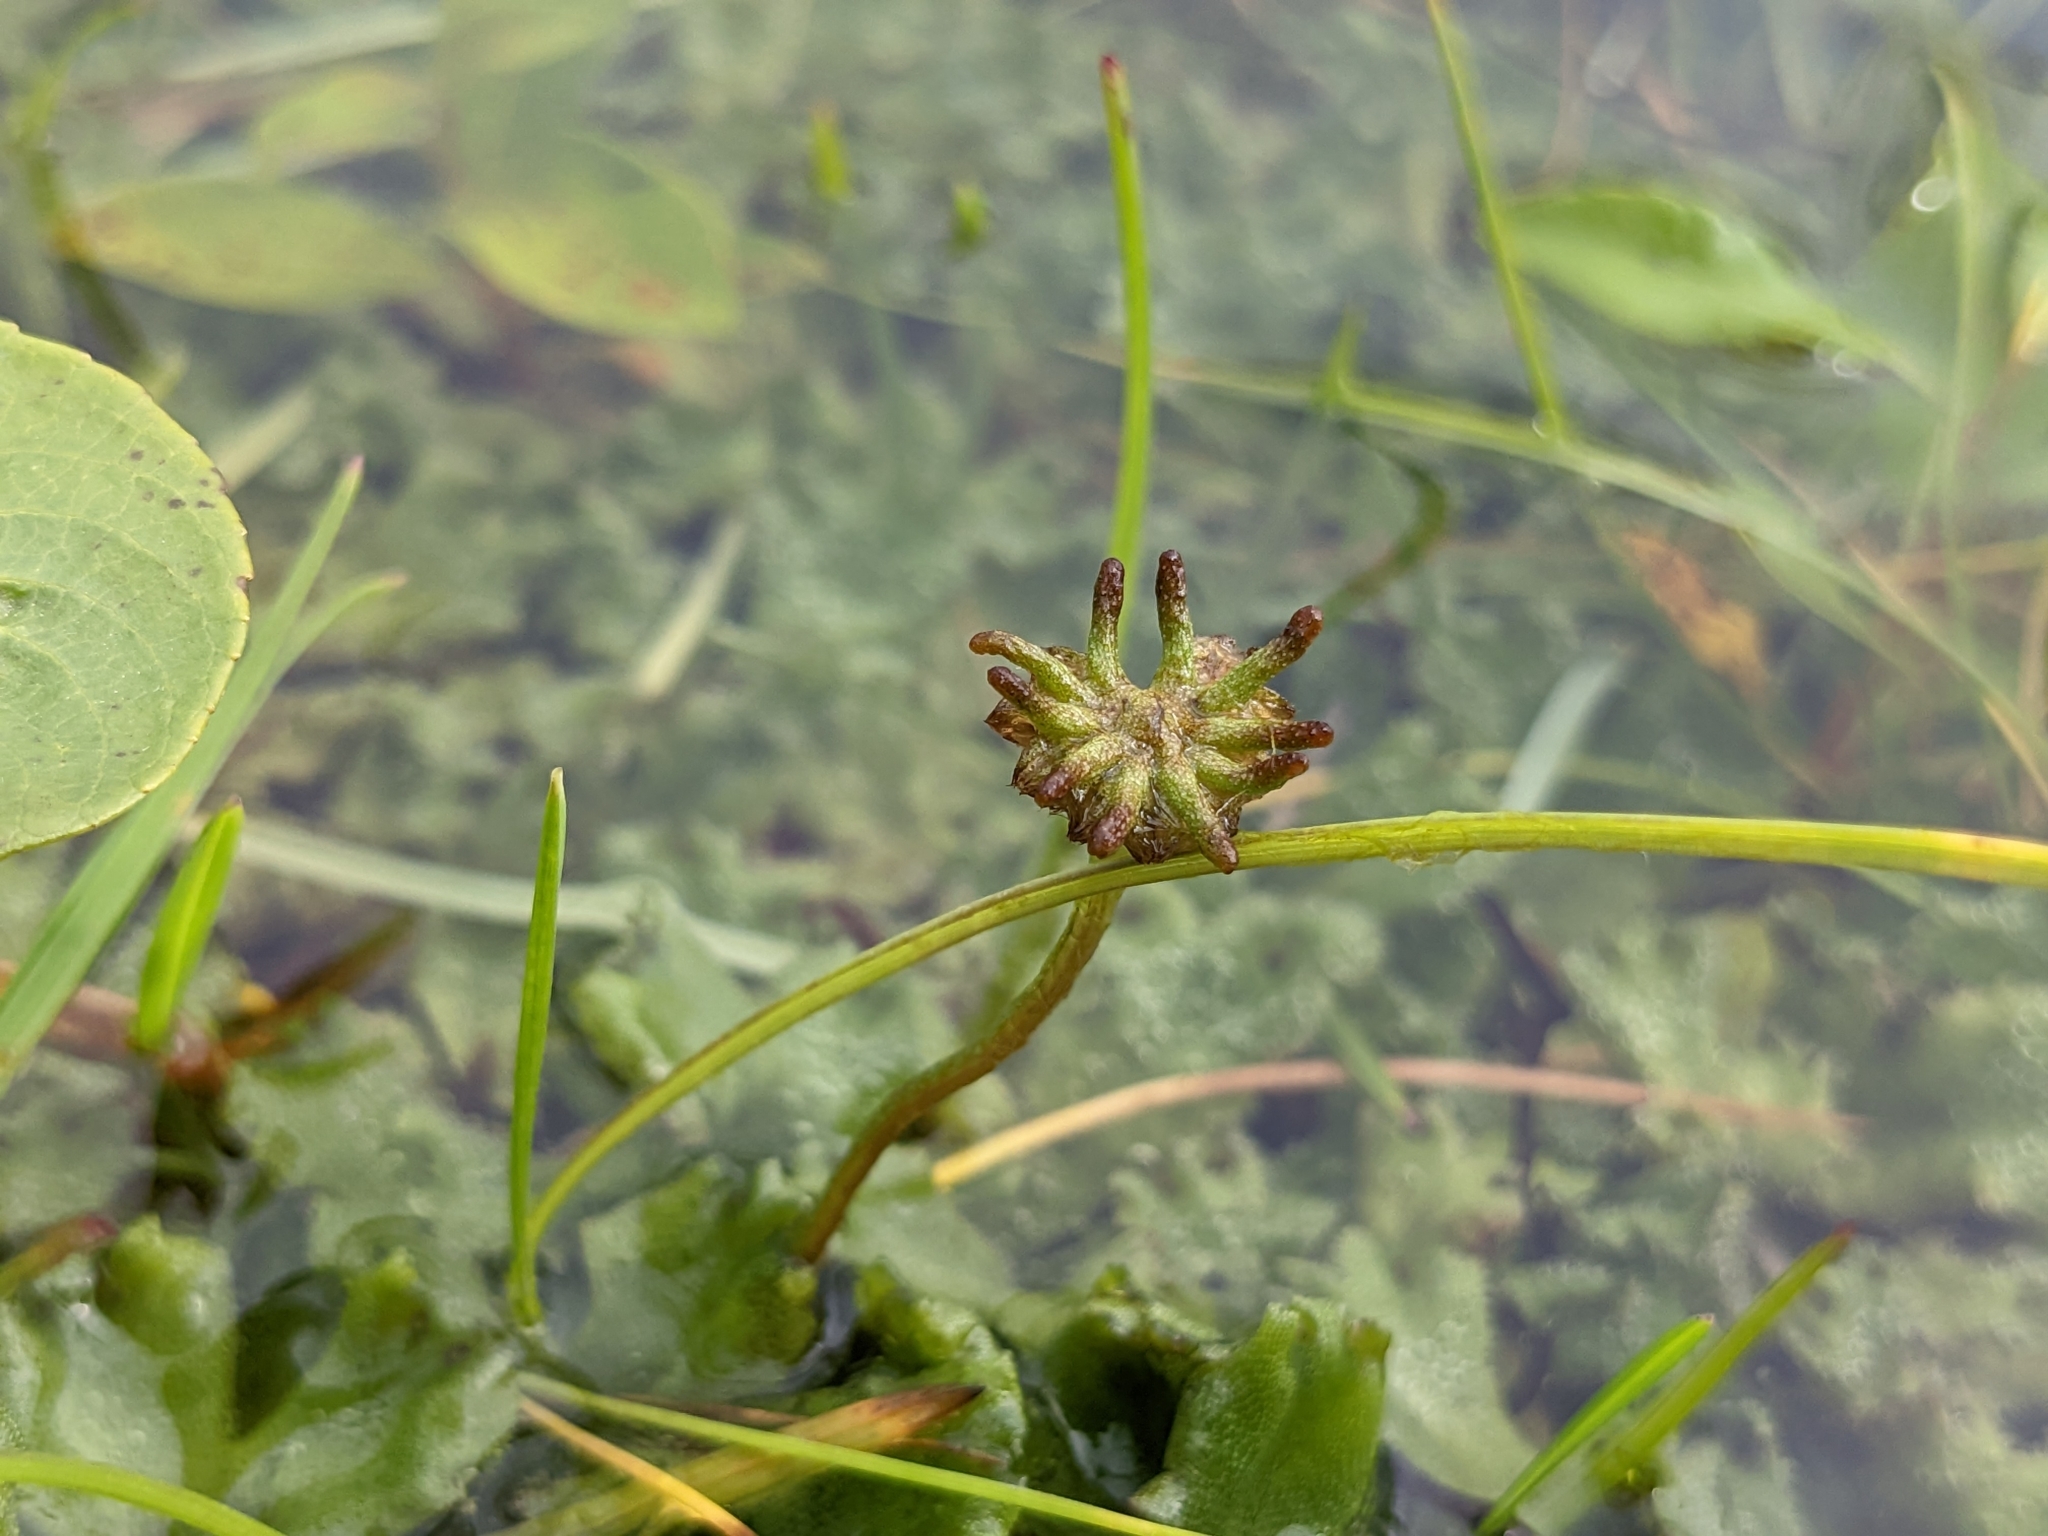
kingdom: Plantae
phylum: Marchantiophyta
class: Marchantiopsida
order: Marchantiales
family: Marchantiaceae
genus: Marchantia
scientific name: Marchantia polymorpha
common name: Common liverwort
